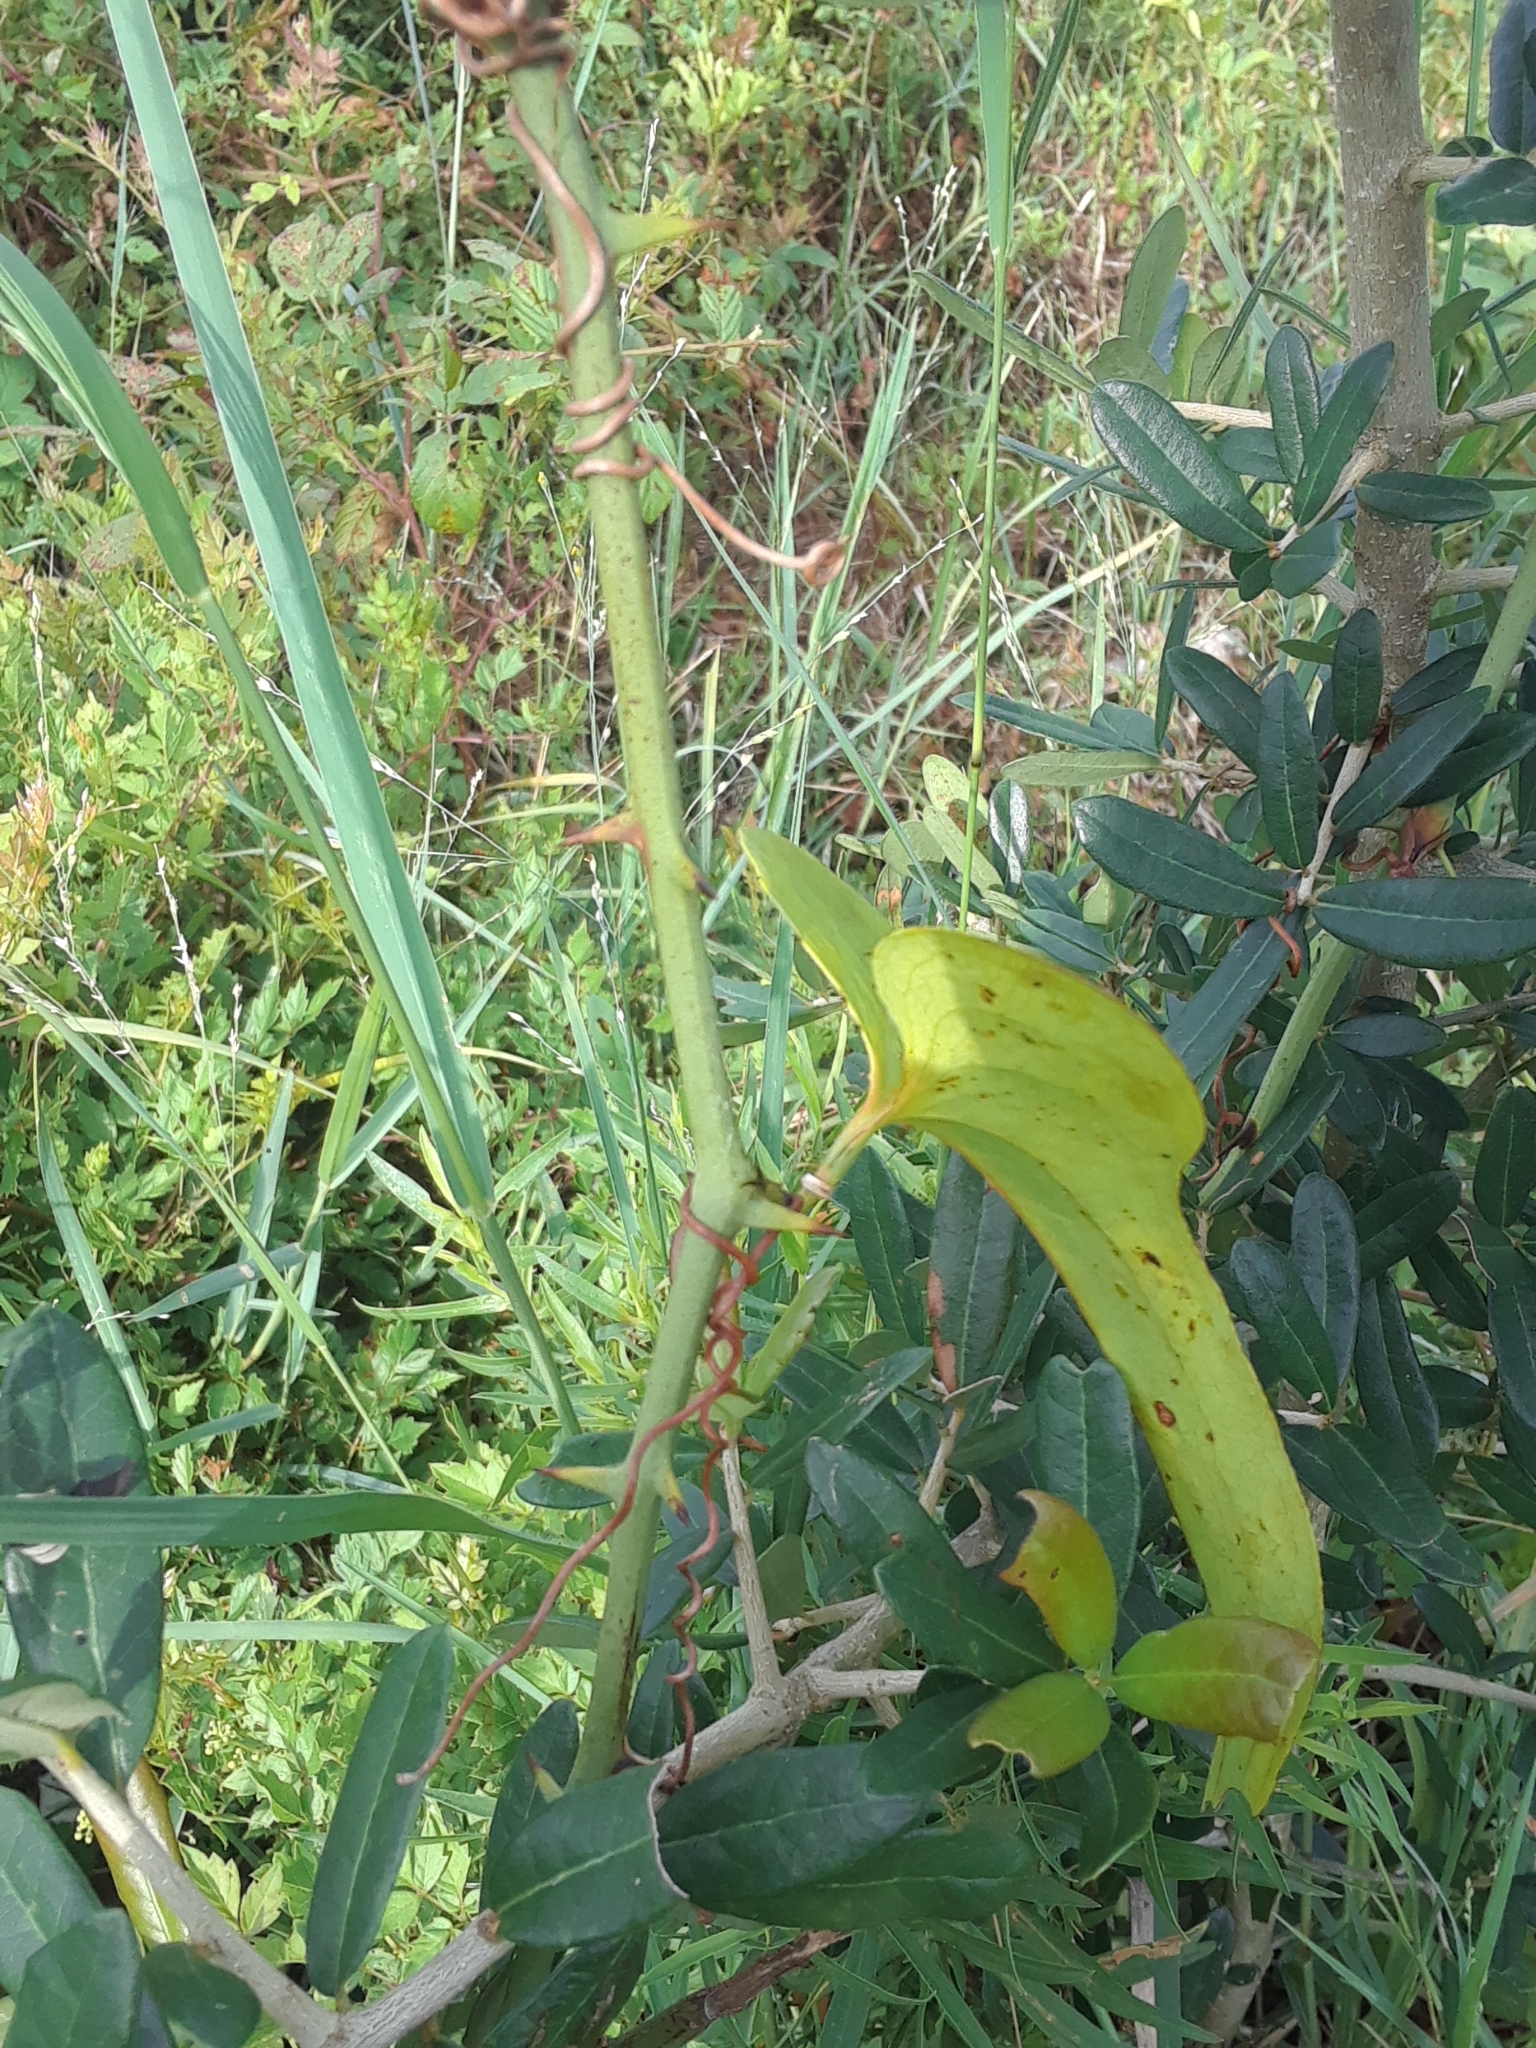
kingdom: Plantae
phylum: Tracheophyta
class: Liliopsida
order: Liliales
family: Smilacaceae
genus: Smilax
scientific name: Smilax bona-nox
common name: Catbrier
